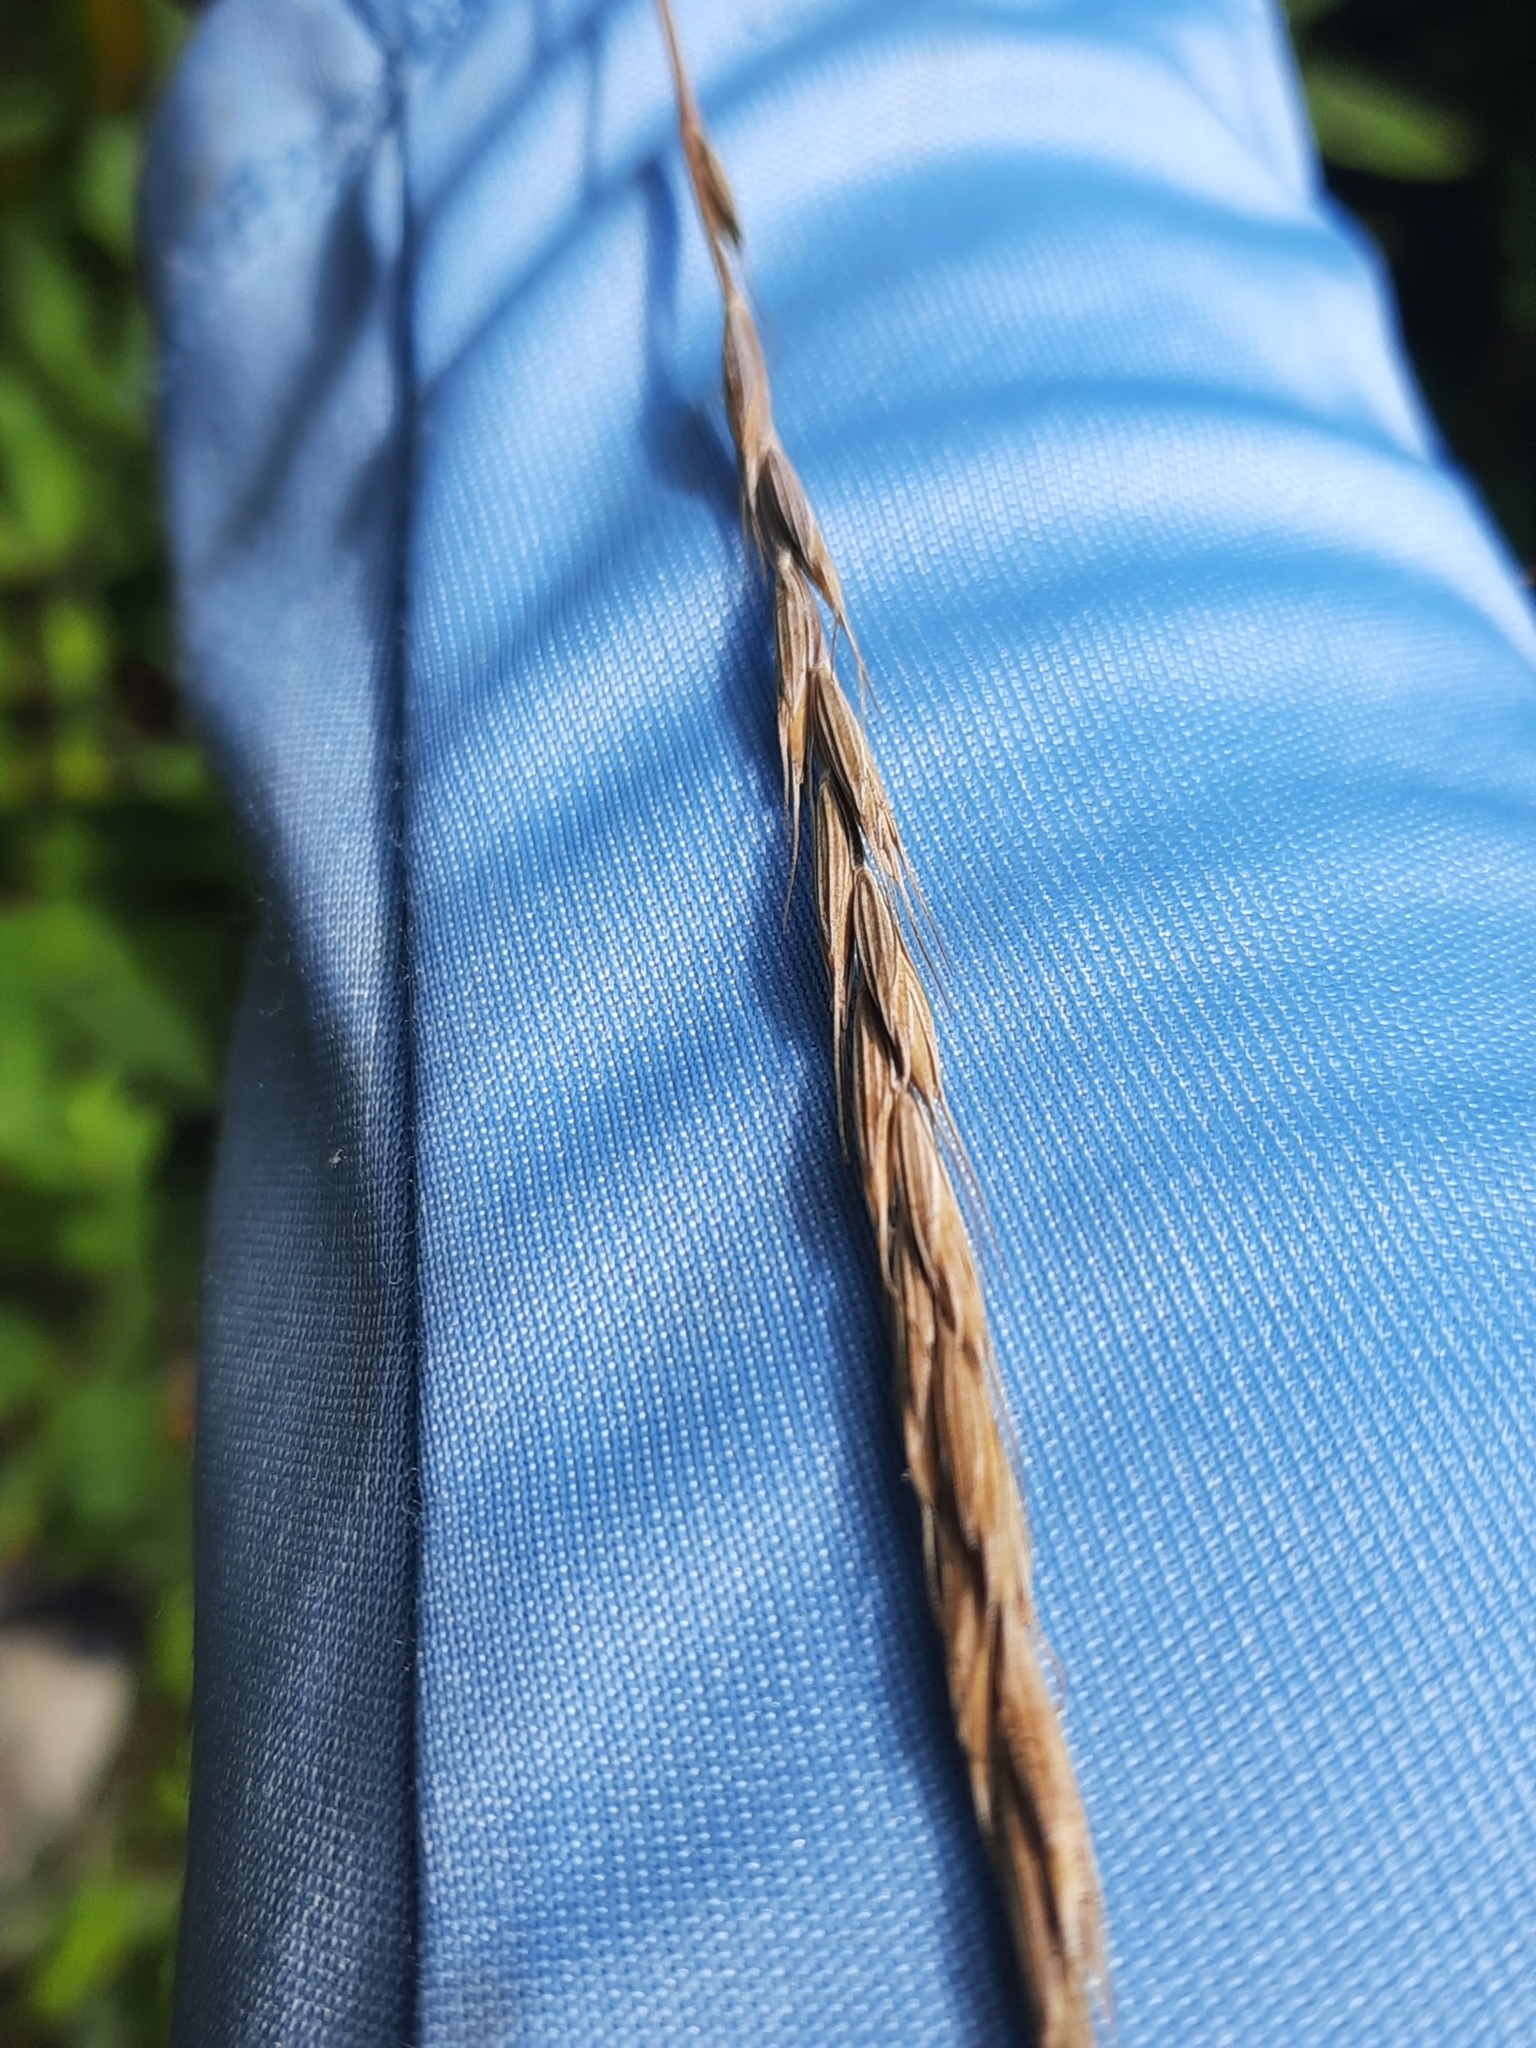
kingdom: Plantae
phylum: Tracheophyta
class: Liliopsida
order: Poales
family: Poaceae
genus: Elymus
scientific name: Elymus violaceus
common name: Arctic wheatgrass
